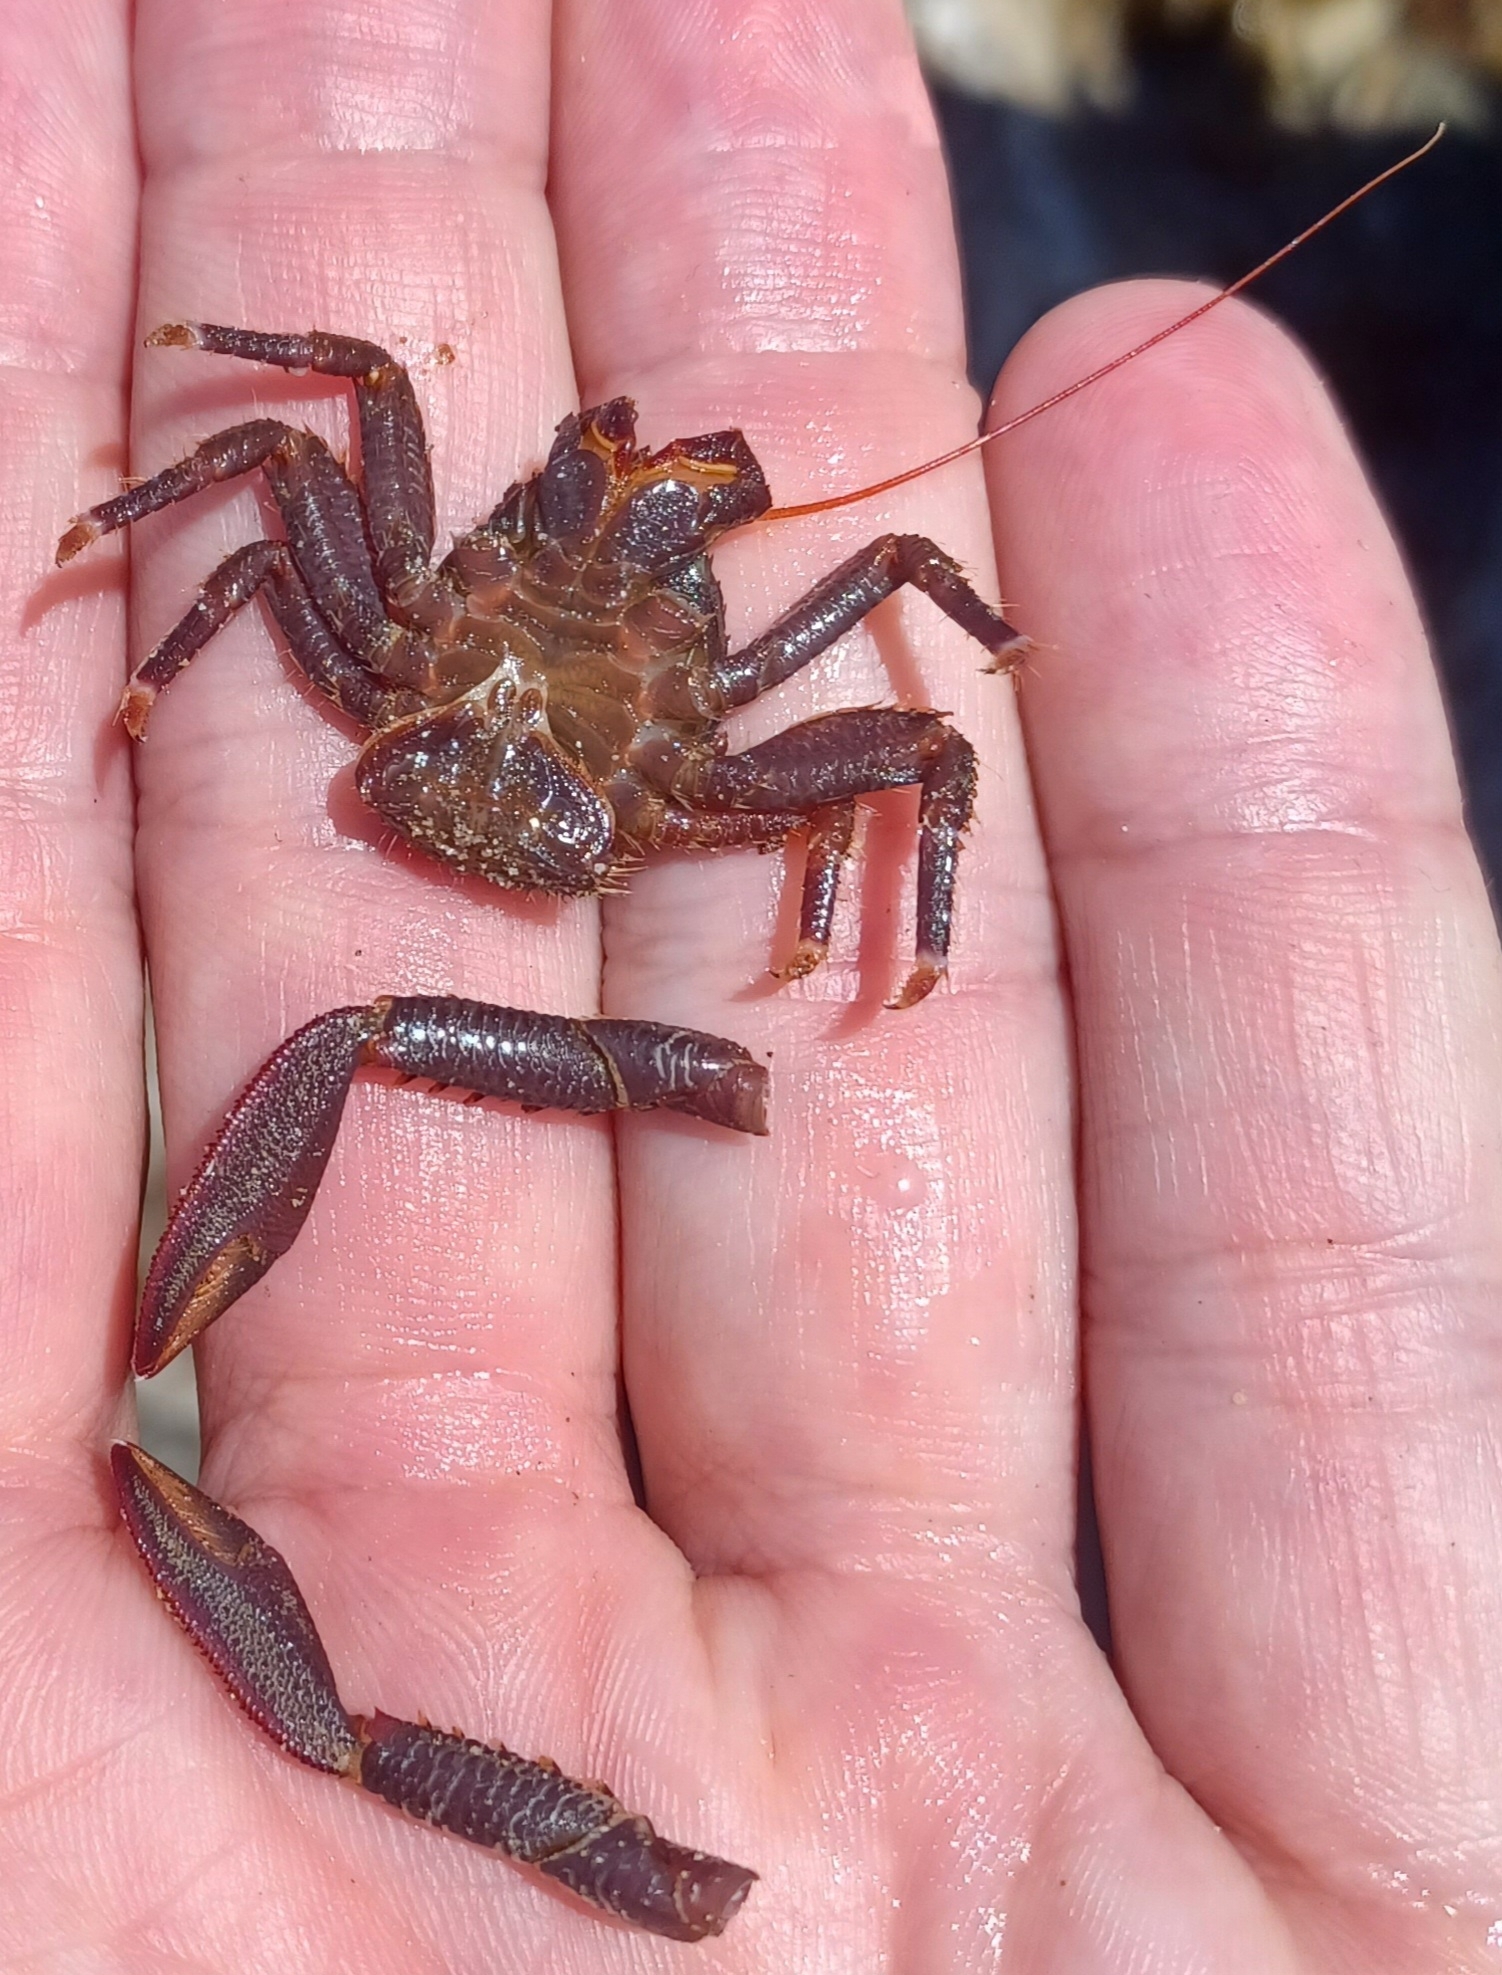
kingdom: Animalia
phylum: Arthropoda
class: Malacostraca
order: Decapoda
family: Porcellanidae
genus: Petrocheles
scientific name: Petrocheles australiensis
